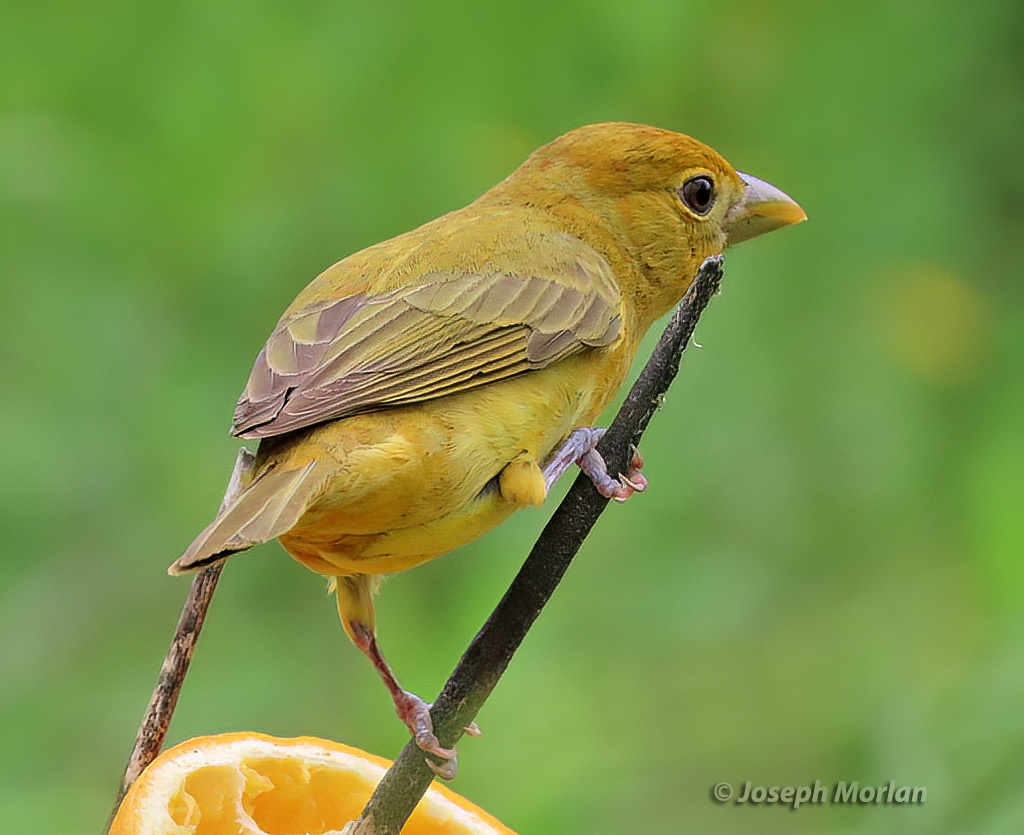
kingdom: Animalia
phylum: Chordata
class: Aves
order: Passeriformes
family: Cardinalidae
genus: Piranga
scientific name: Piranga rubra
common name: Summer tanager
